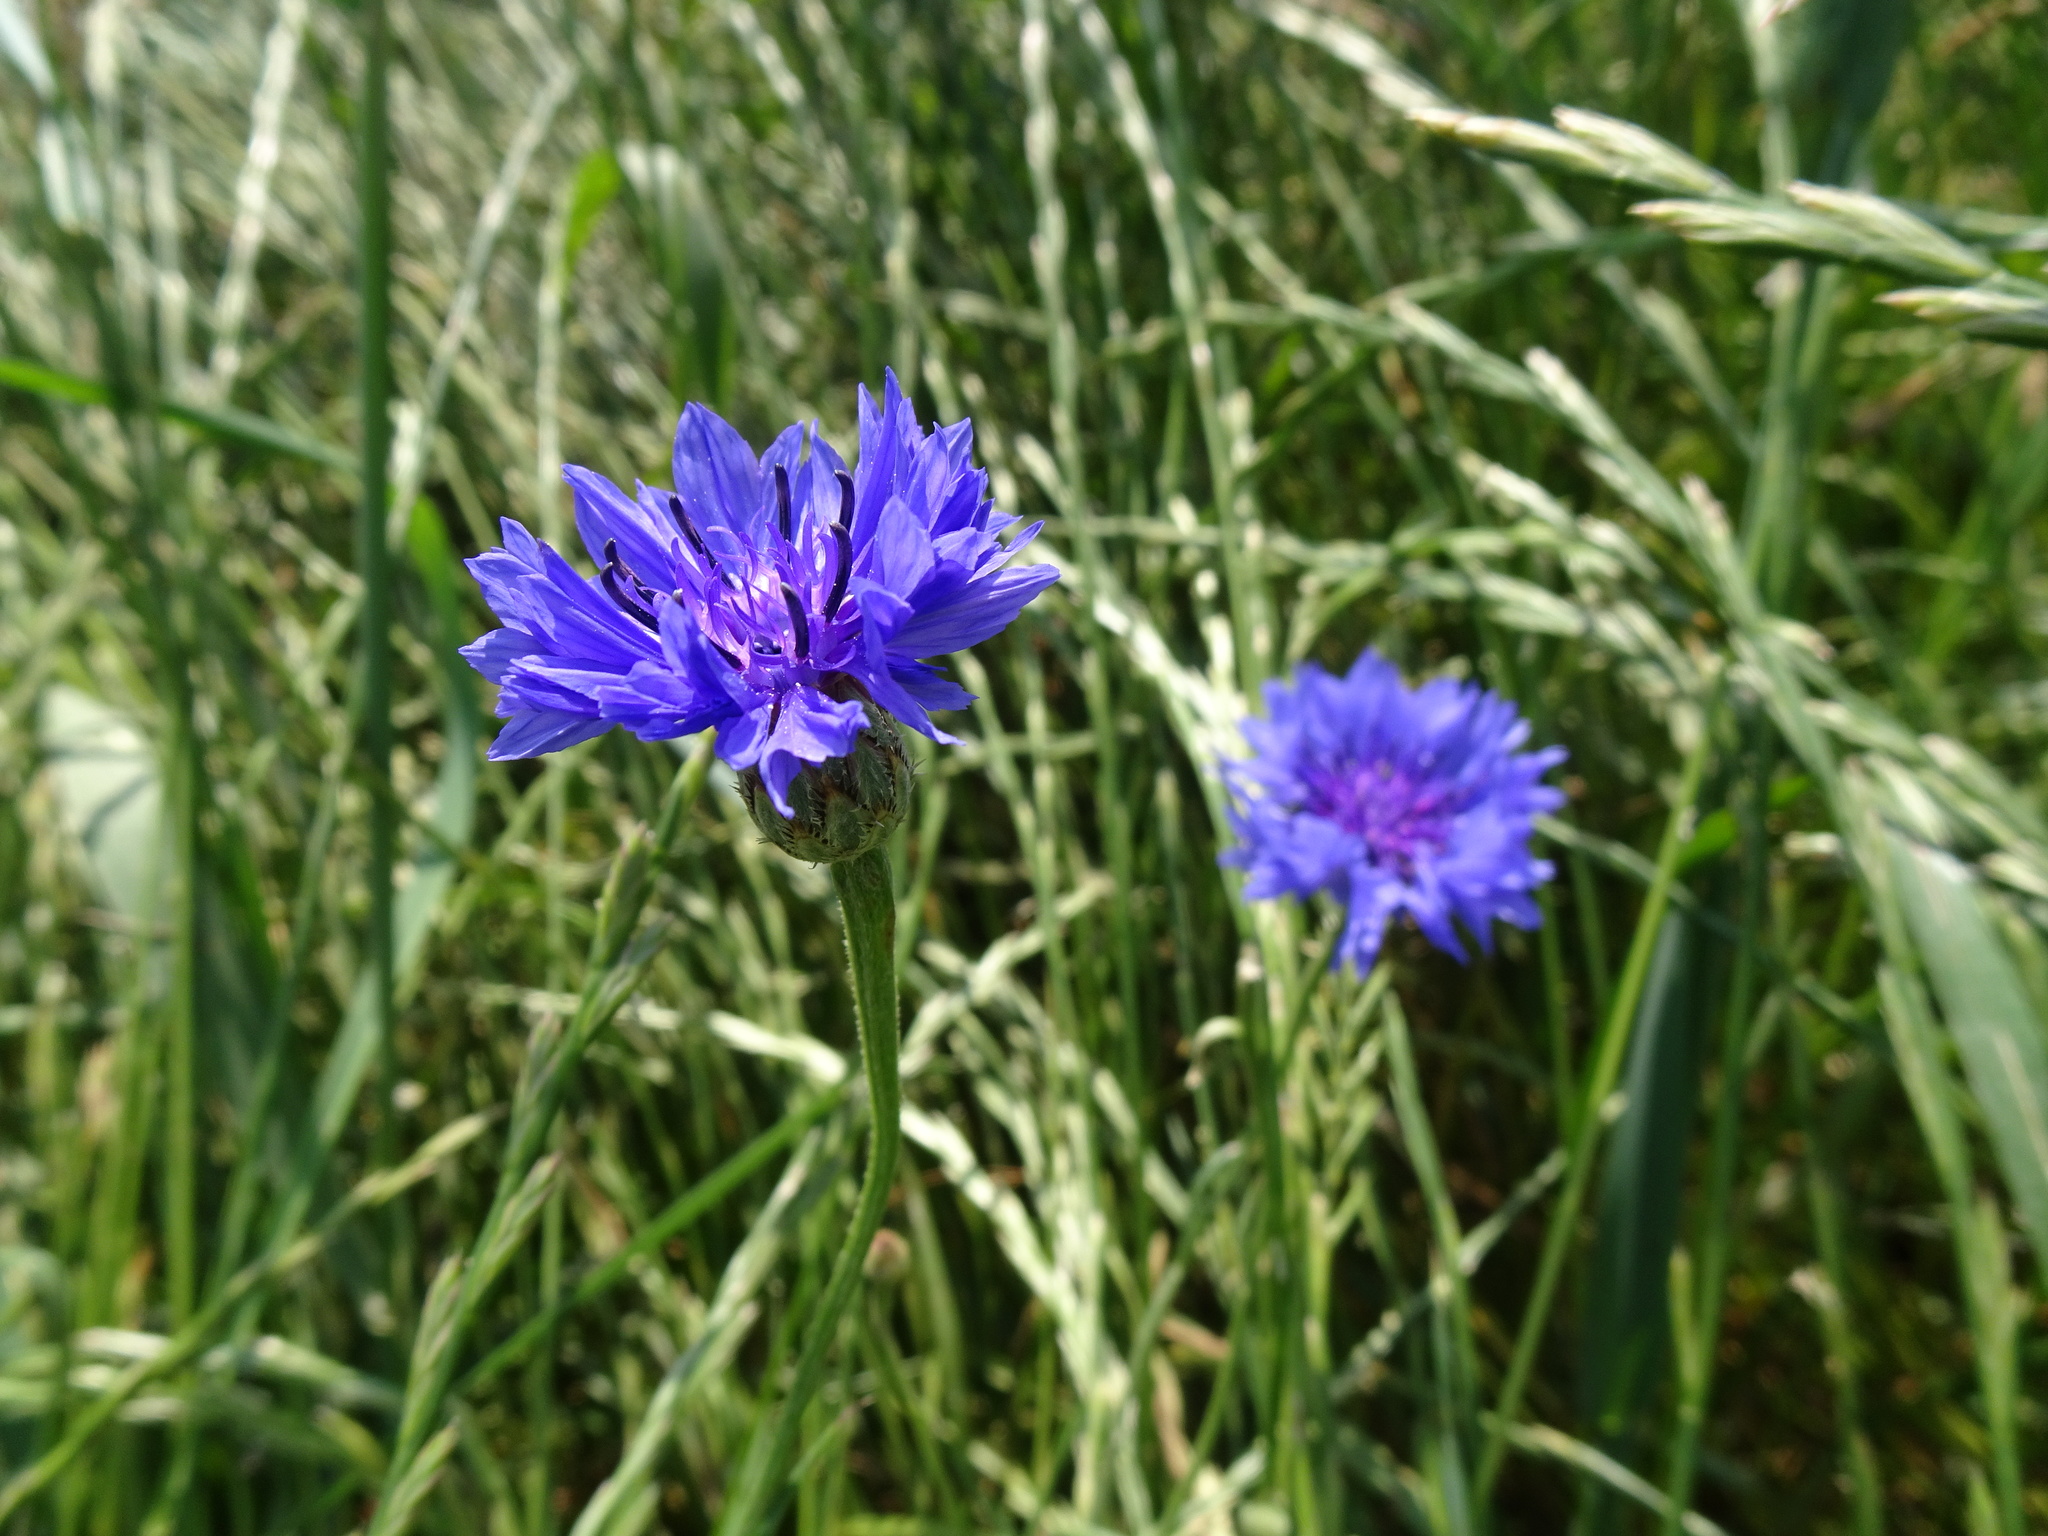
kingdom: Plantae
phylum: Tracheophyta
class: Magnoliopsida
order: Asterales
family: Asteraceae
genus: Centaurea
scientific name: Centaurea cyanus
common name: Cornflower
